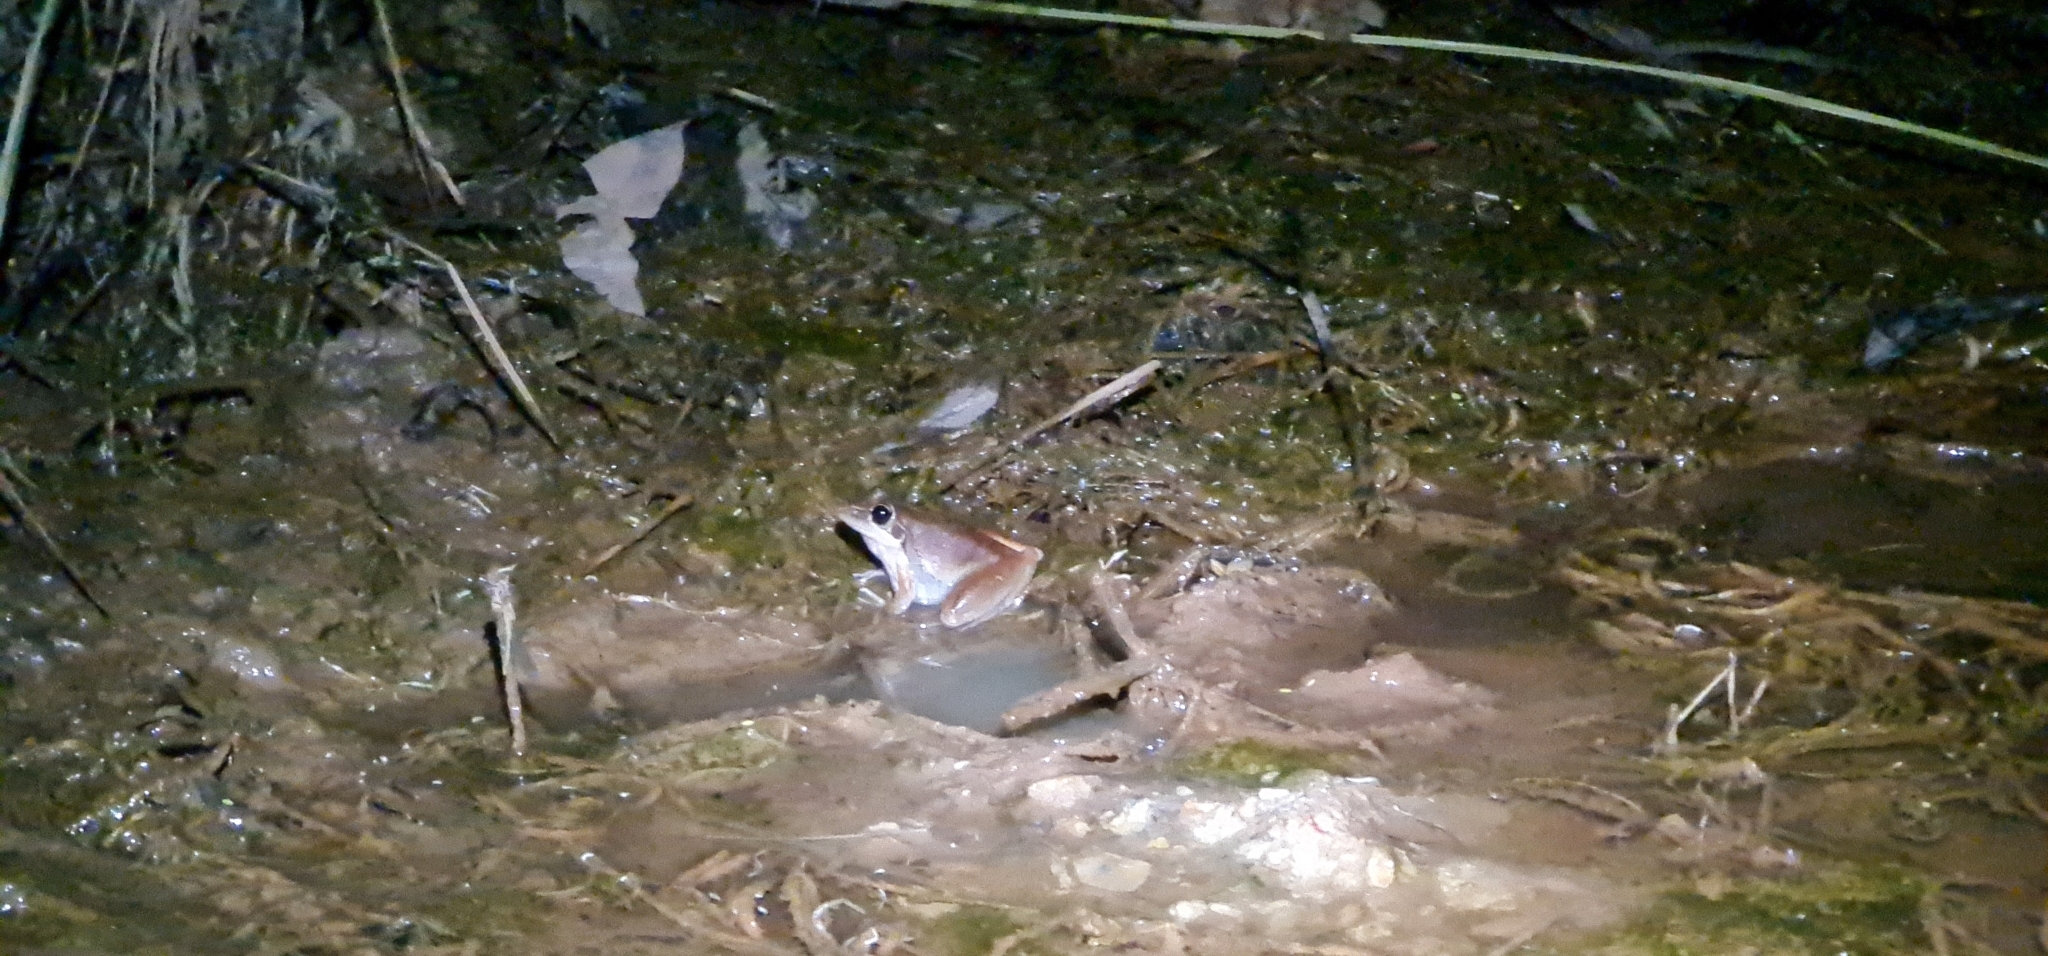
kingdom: Animalia
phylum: Chordata
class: Amphibia
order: Anura
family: Pelodryadidae
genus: Litoria
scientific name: Litoria watjulumensis
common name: Wotjulum frog
